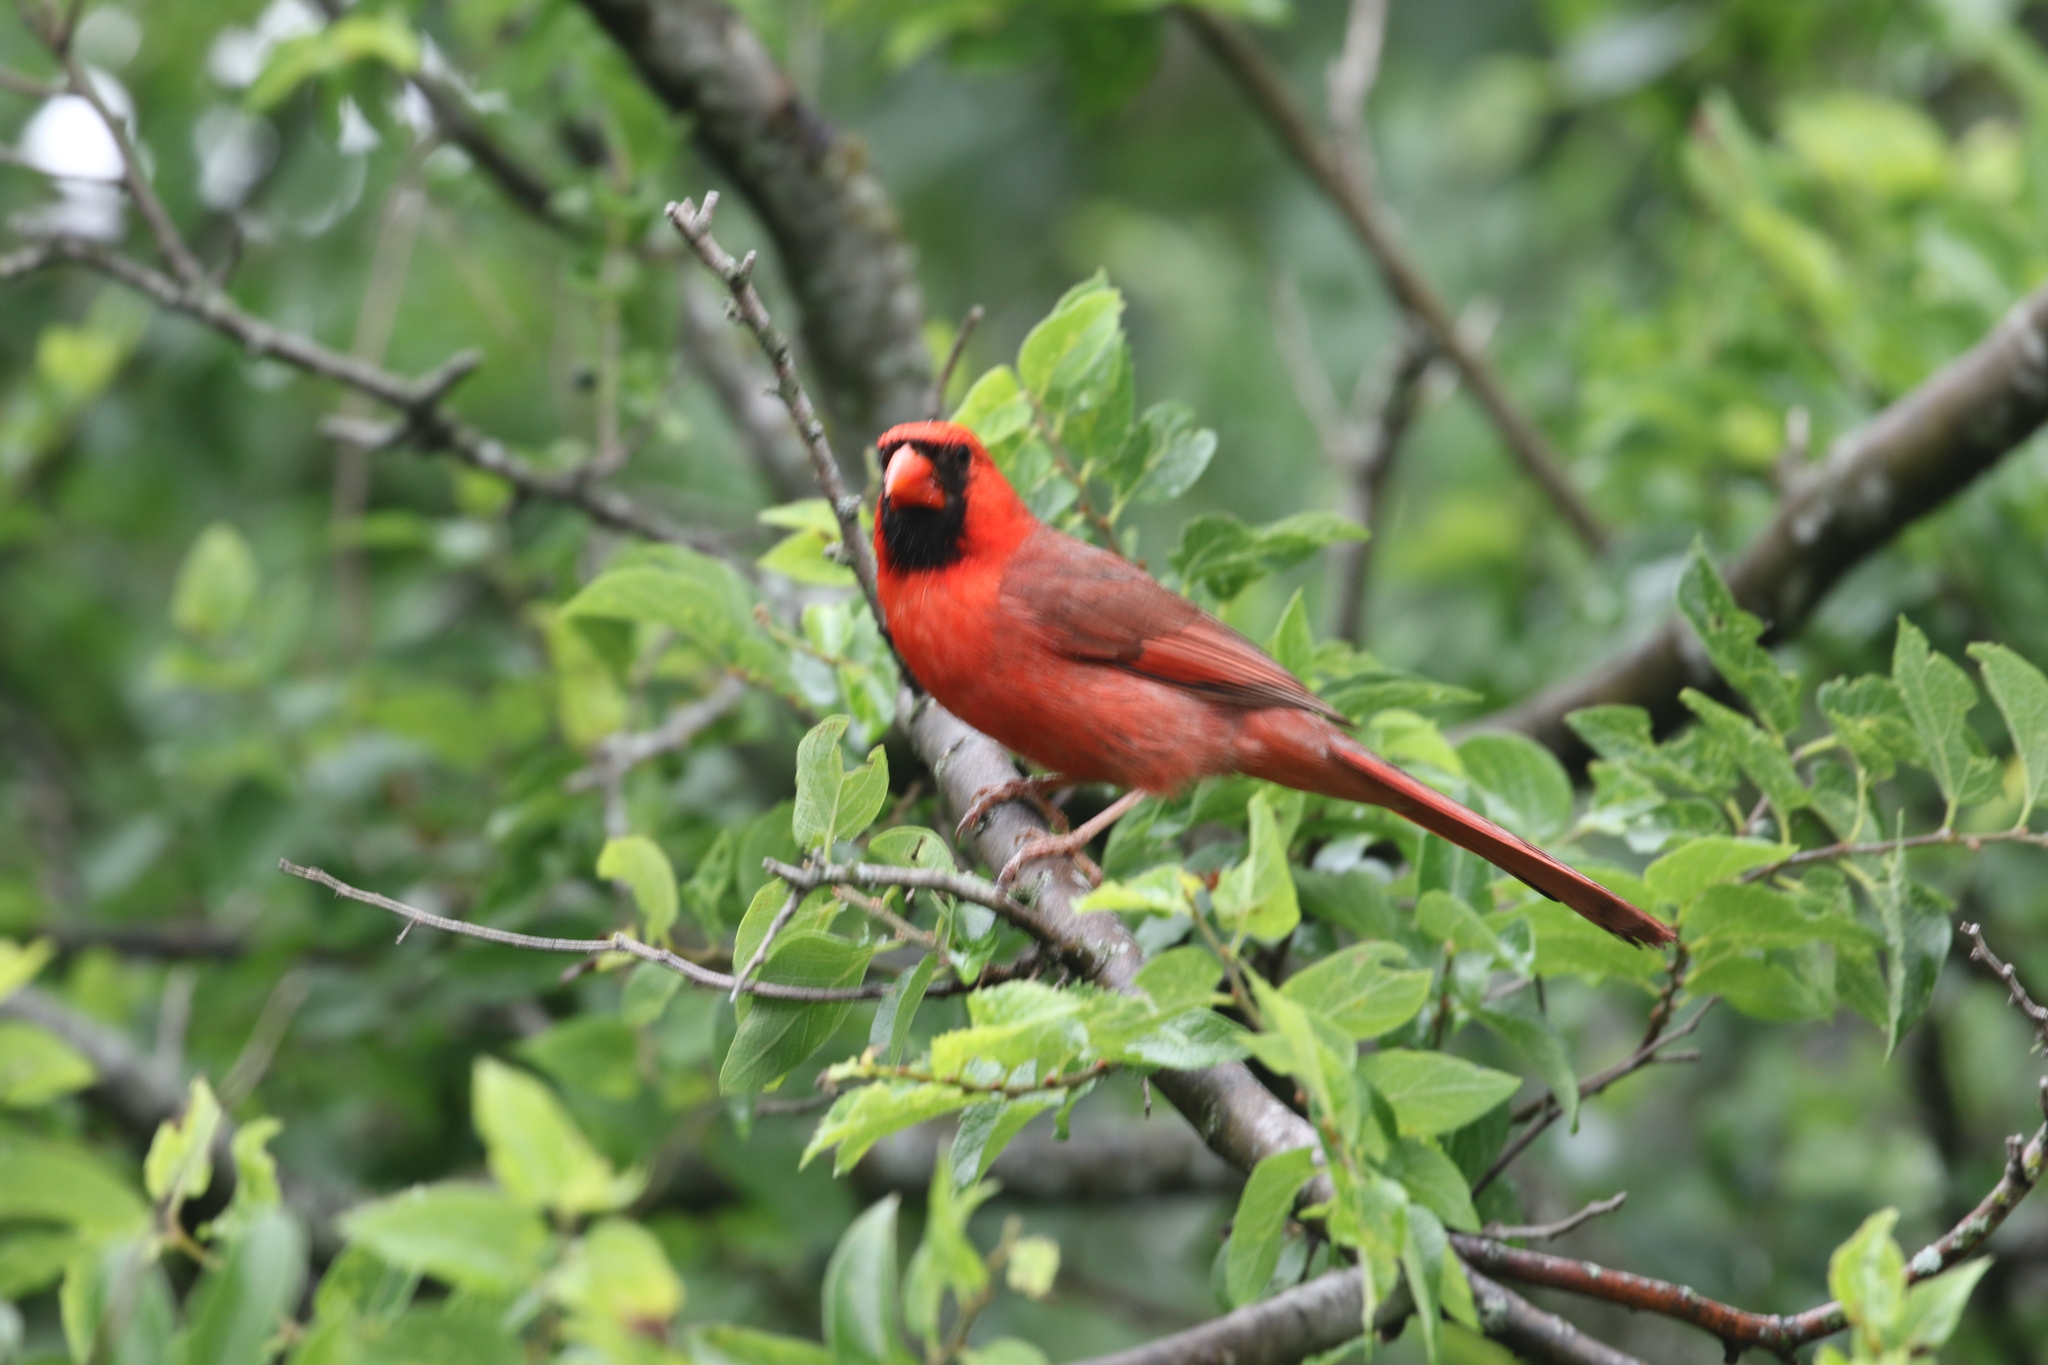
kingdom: Animalia
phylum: Chordata
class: Aves
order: Passeriformes
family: Cardinalidae
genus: Cardinalis
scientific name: Cardinalis cardinalis
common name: Northern cardinal
